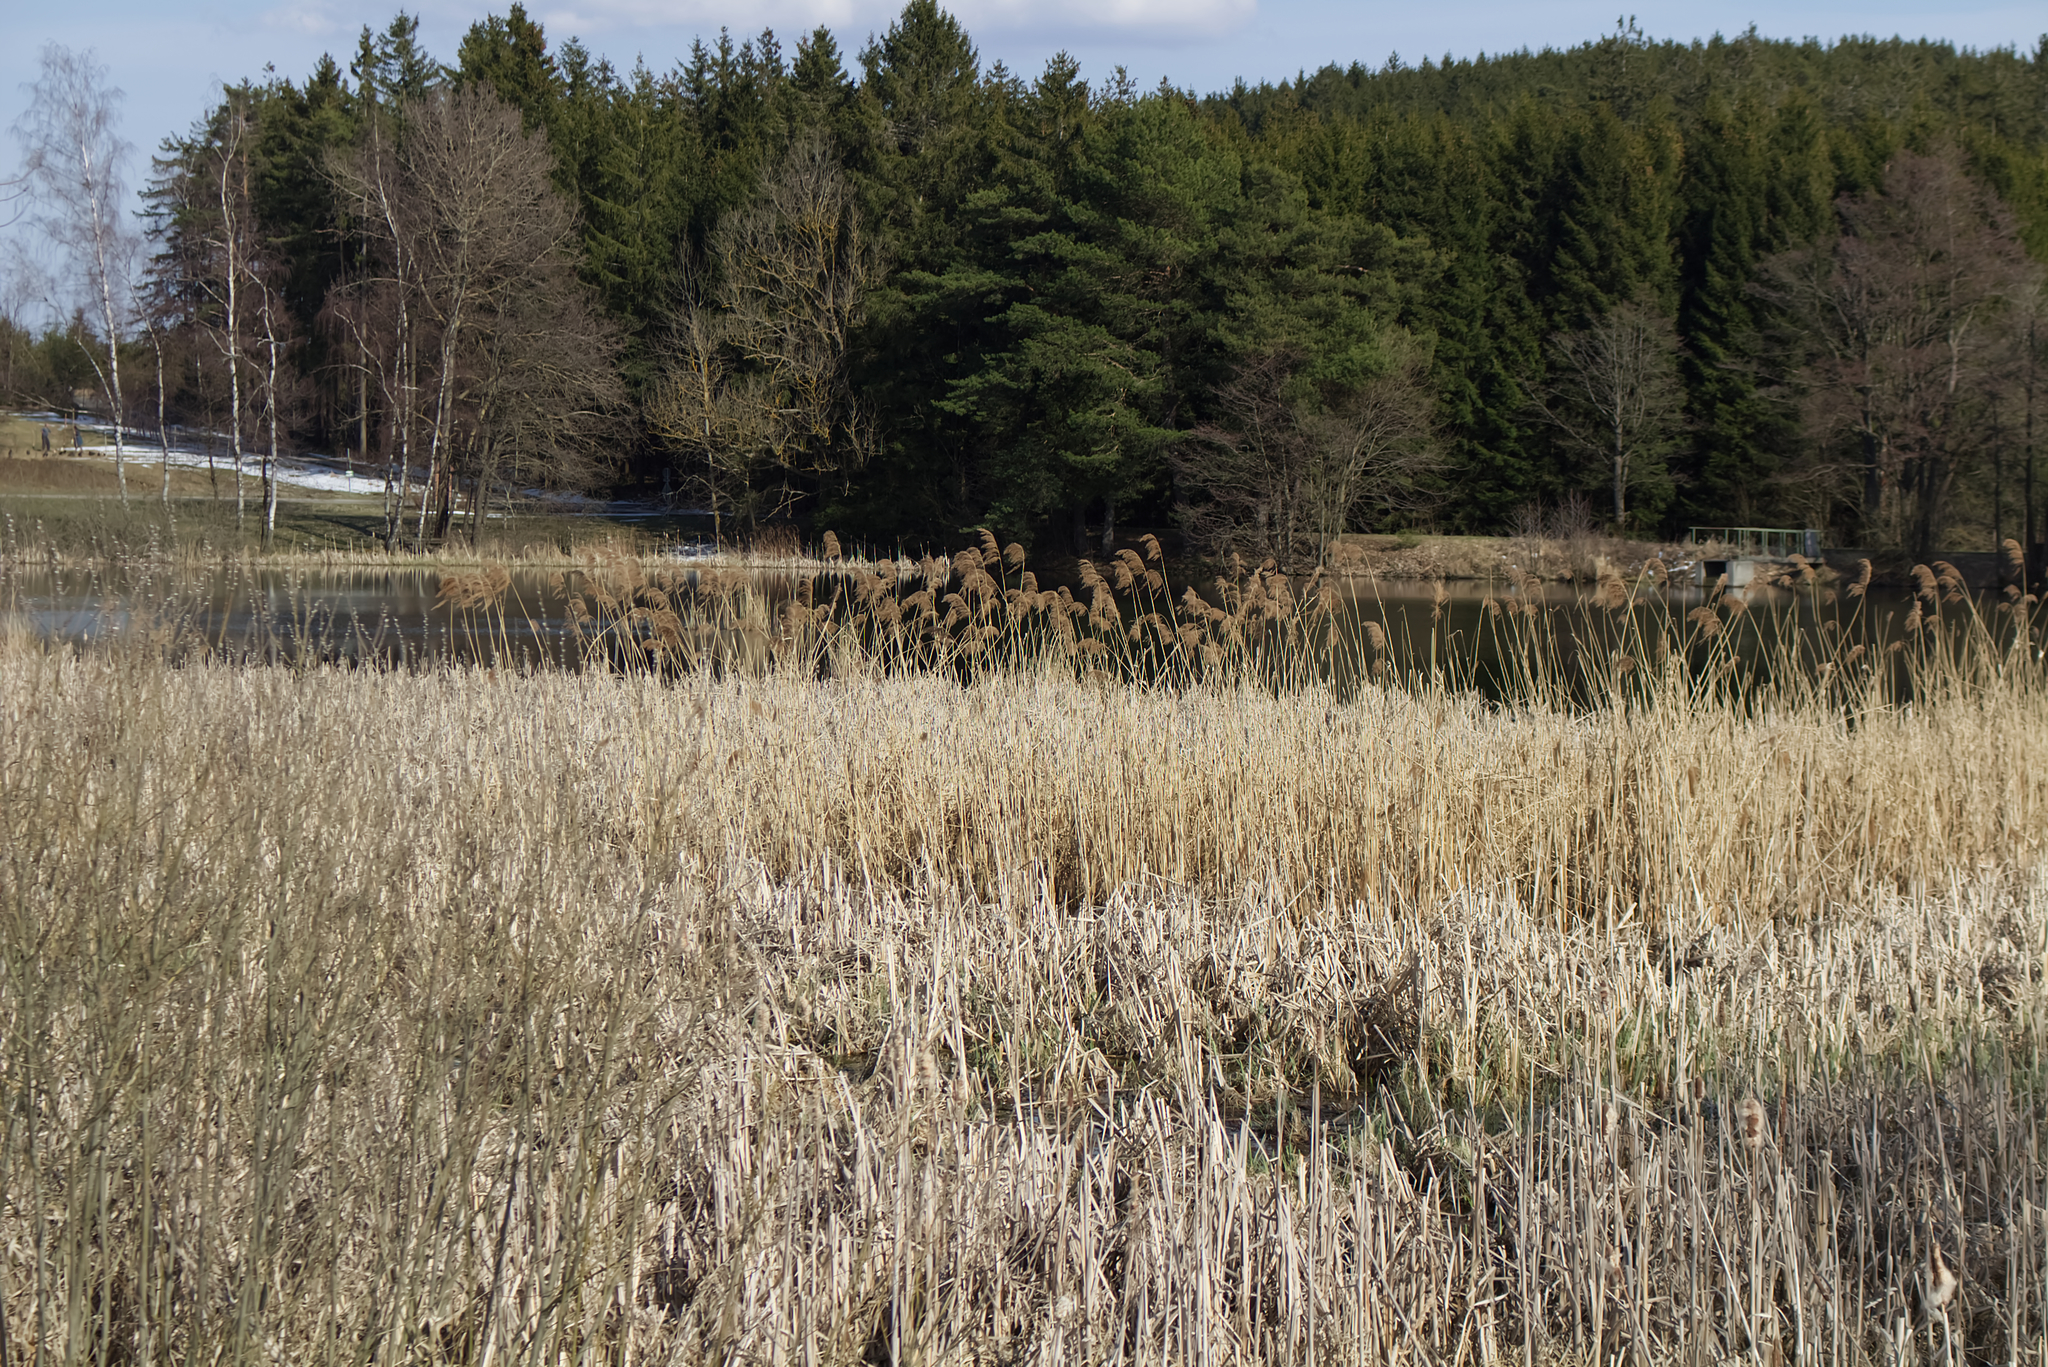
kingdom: Plantae
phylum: Tracheophyta
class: Liliopsida
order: Poales
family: Poaceae
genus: Phragmites
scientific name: Phragmites australis
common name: Common reed
